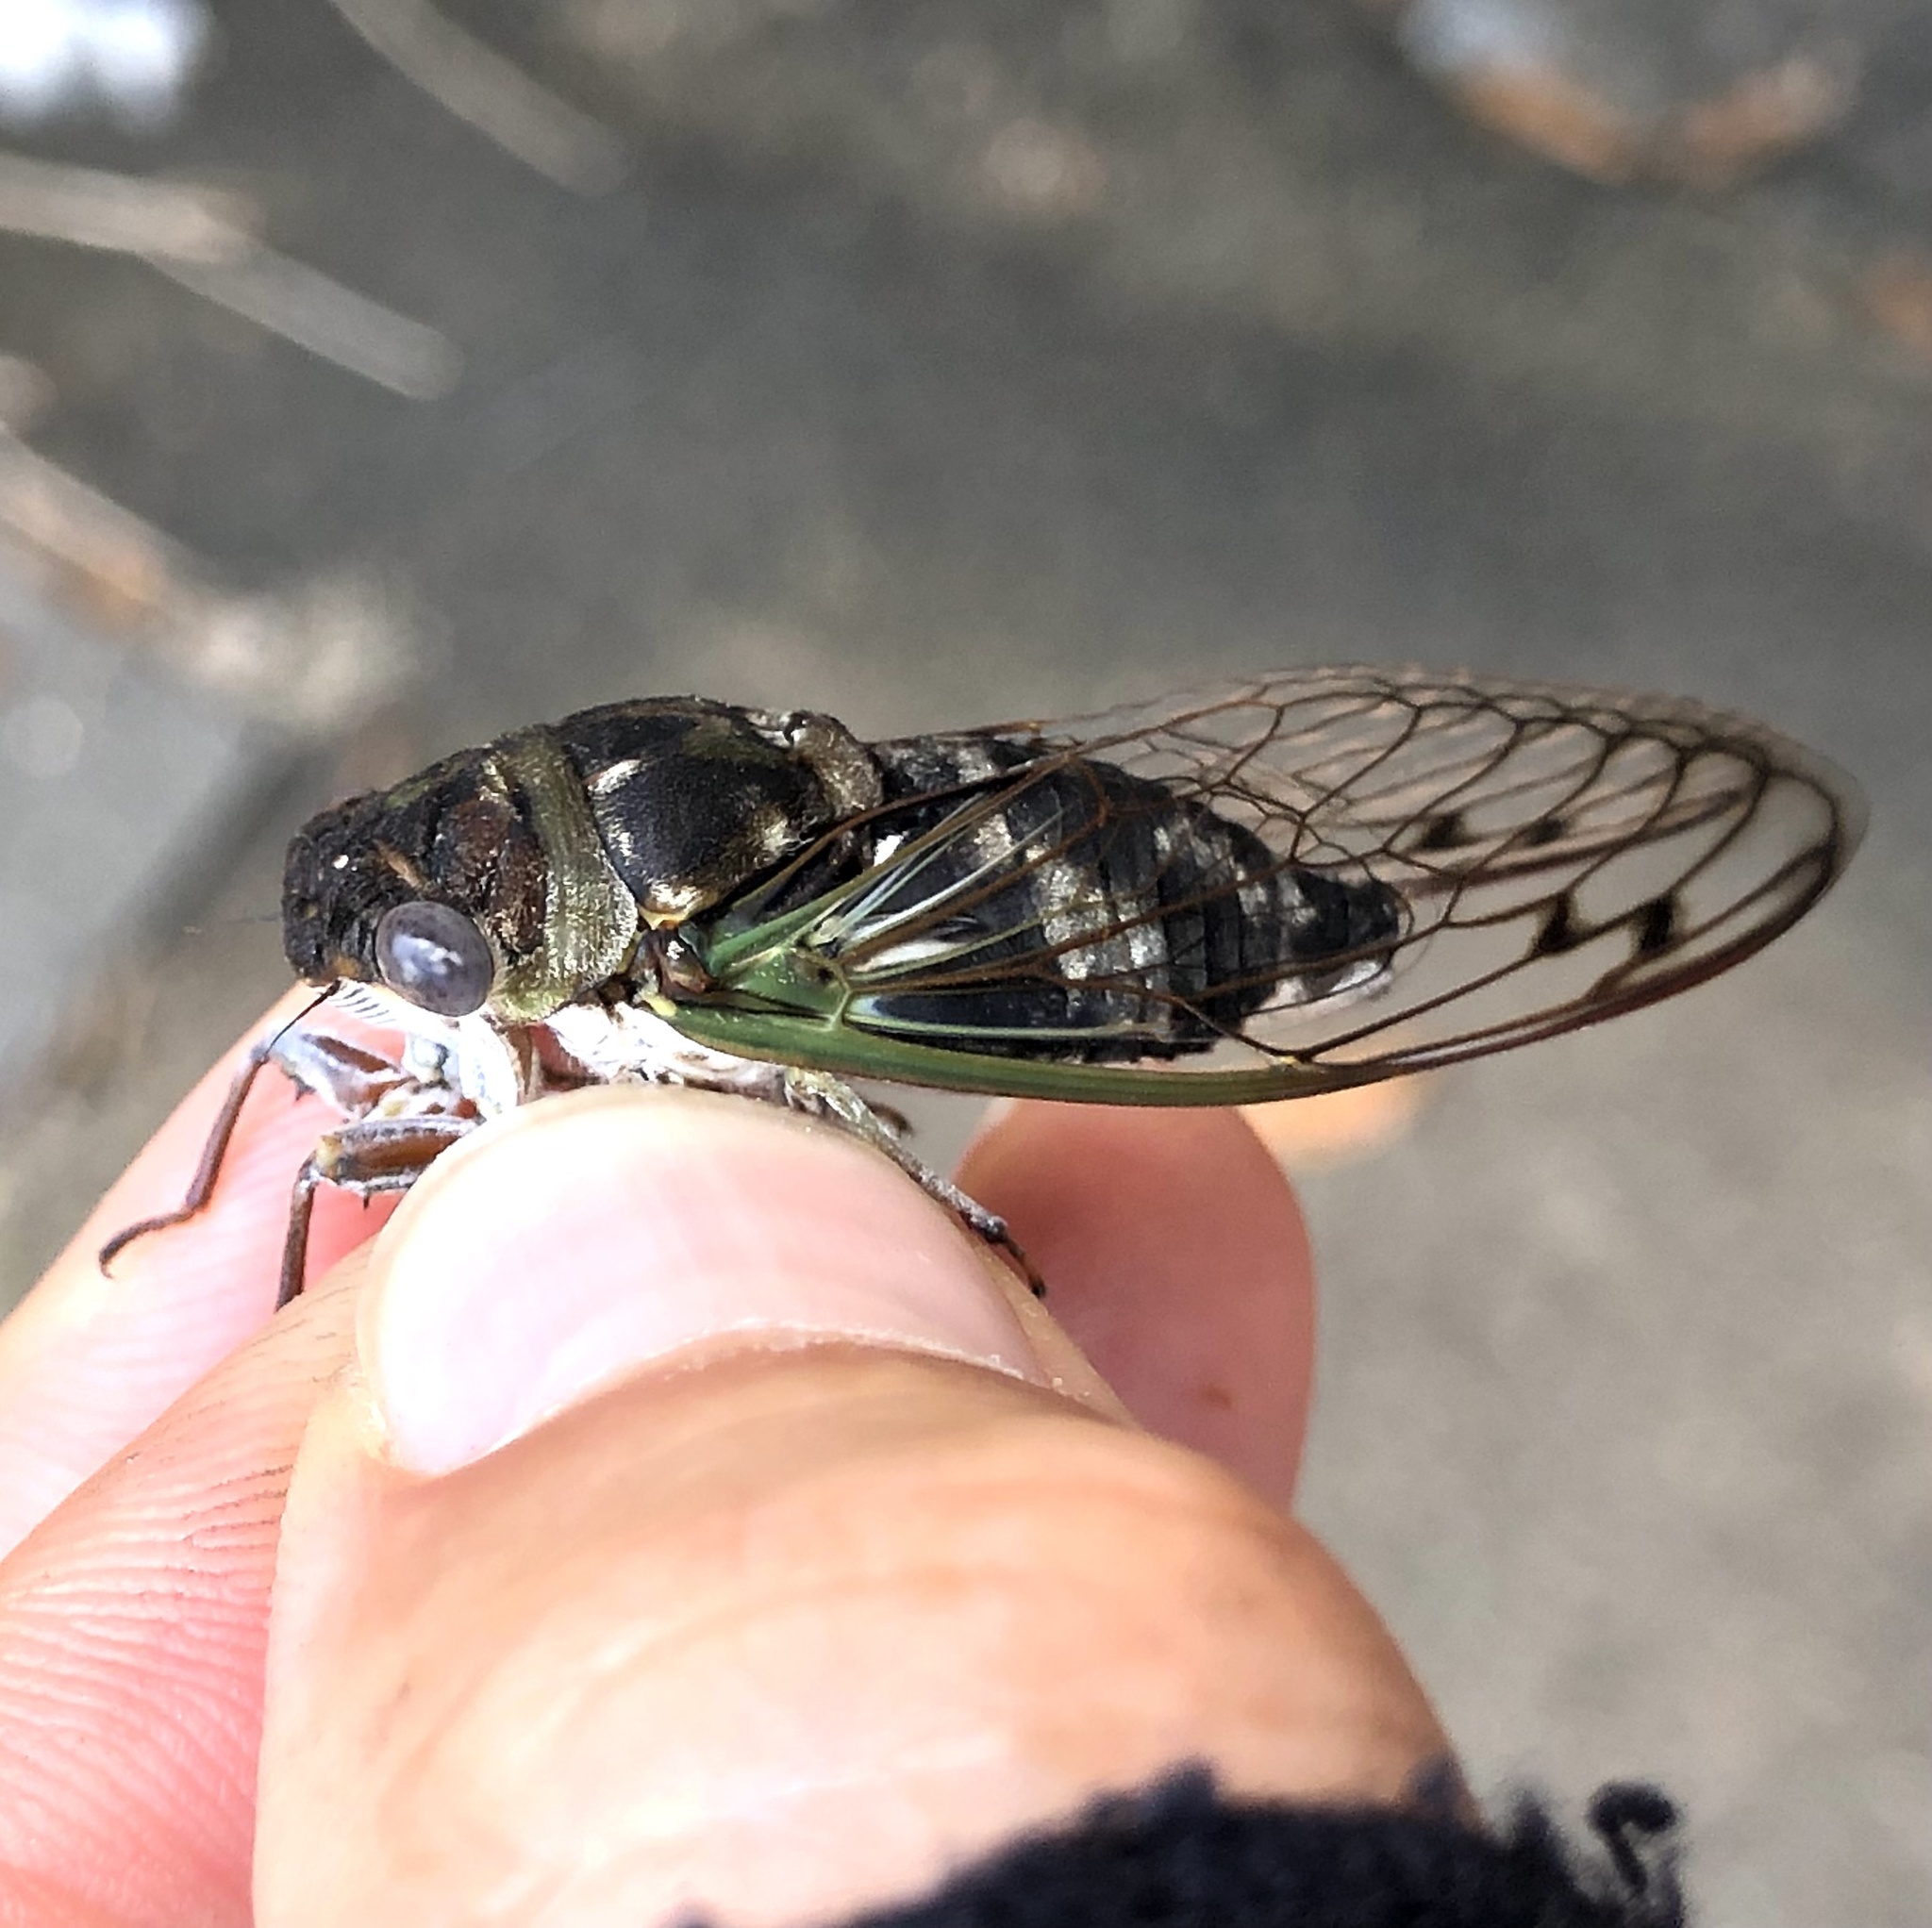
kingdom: Animalia
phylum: Arthropoda
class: Insecta
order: Hemiptera
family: Cicadidae
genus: Neotibicen
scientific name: Neotibicen davisi
